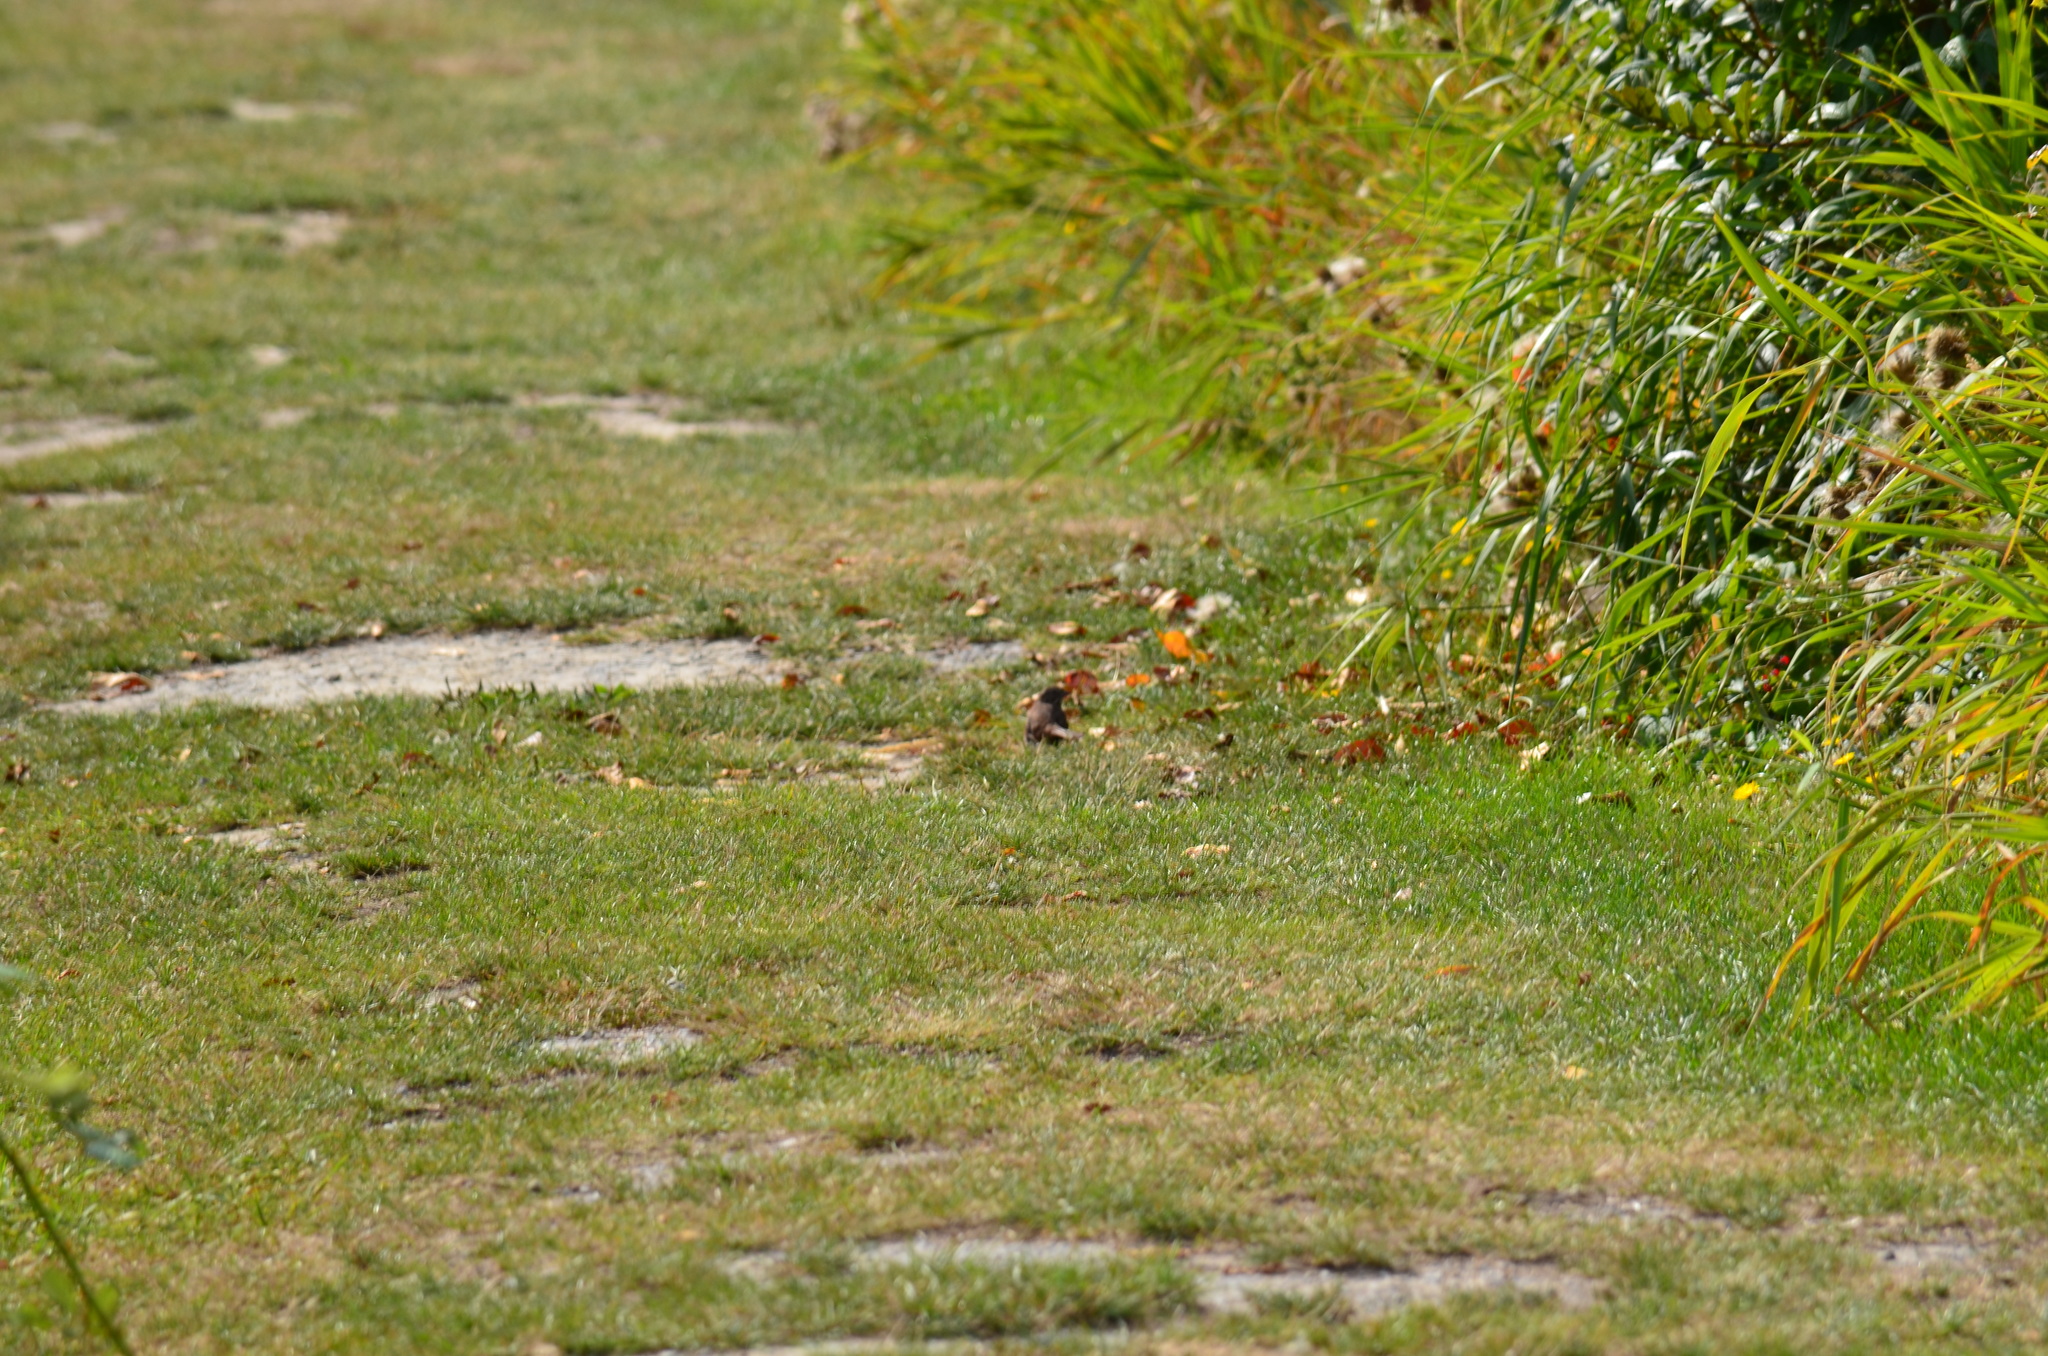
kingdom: Animalia
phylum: Chordata
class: Aves
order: Passeriformes
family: Passerellidae
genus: Melospiza
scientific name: Melospiza melodia
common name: Song sparrow
